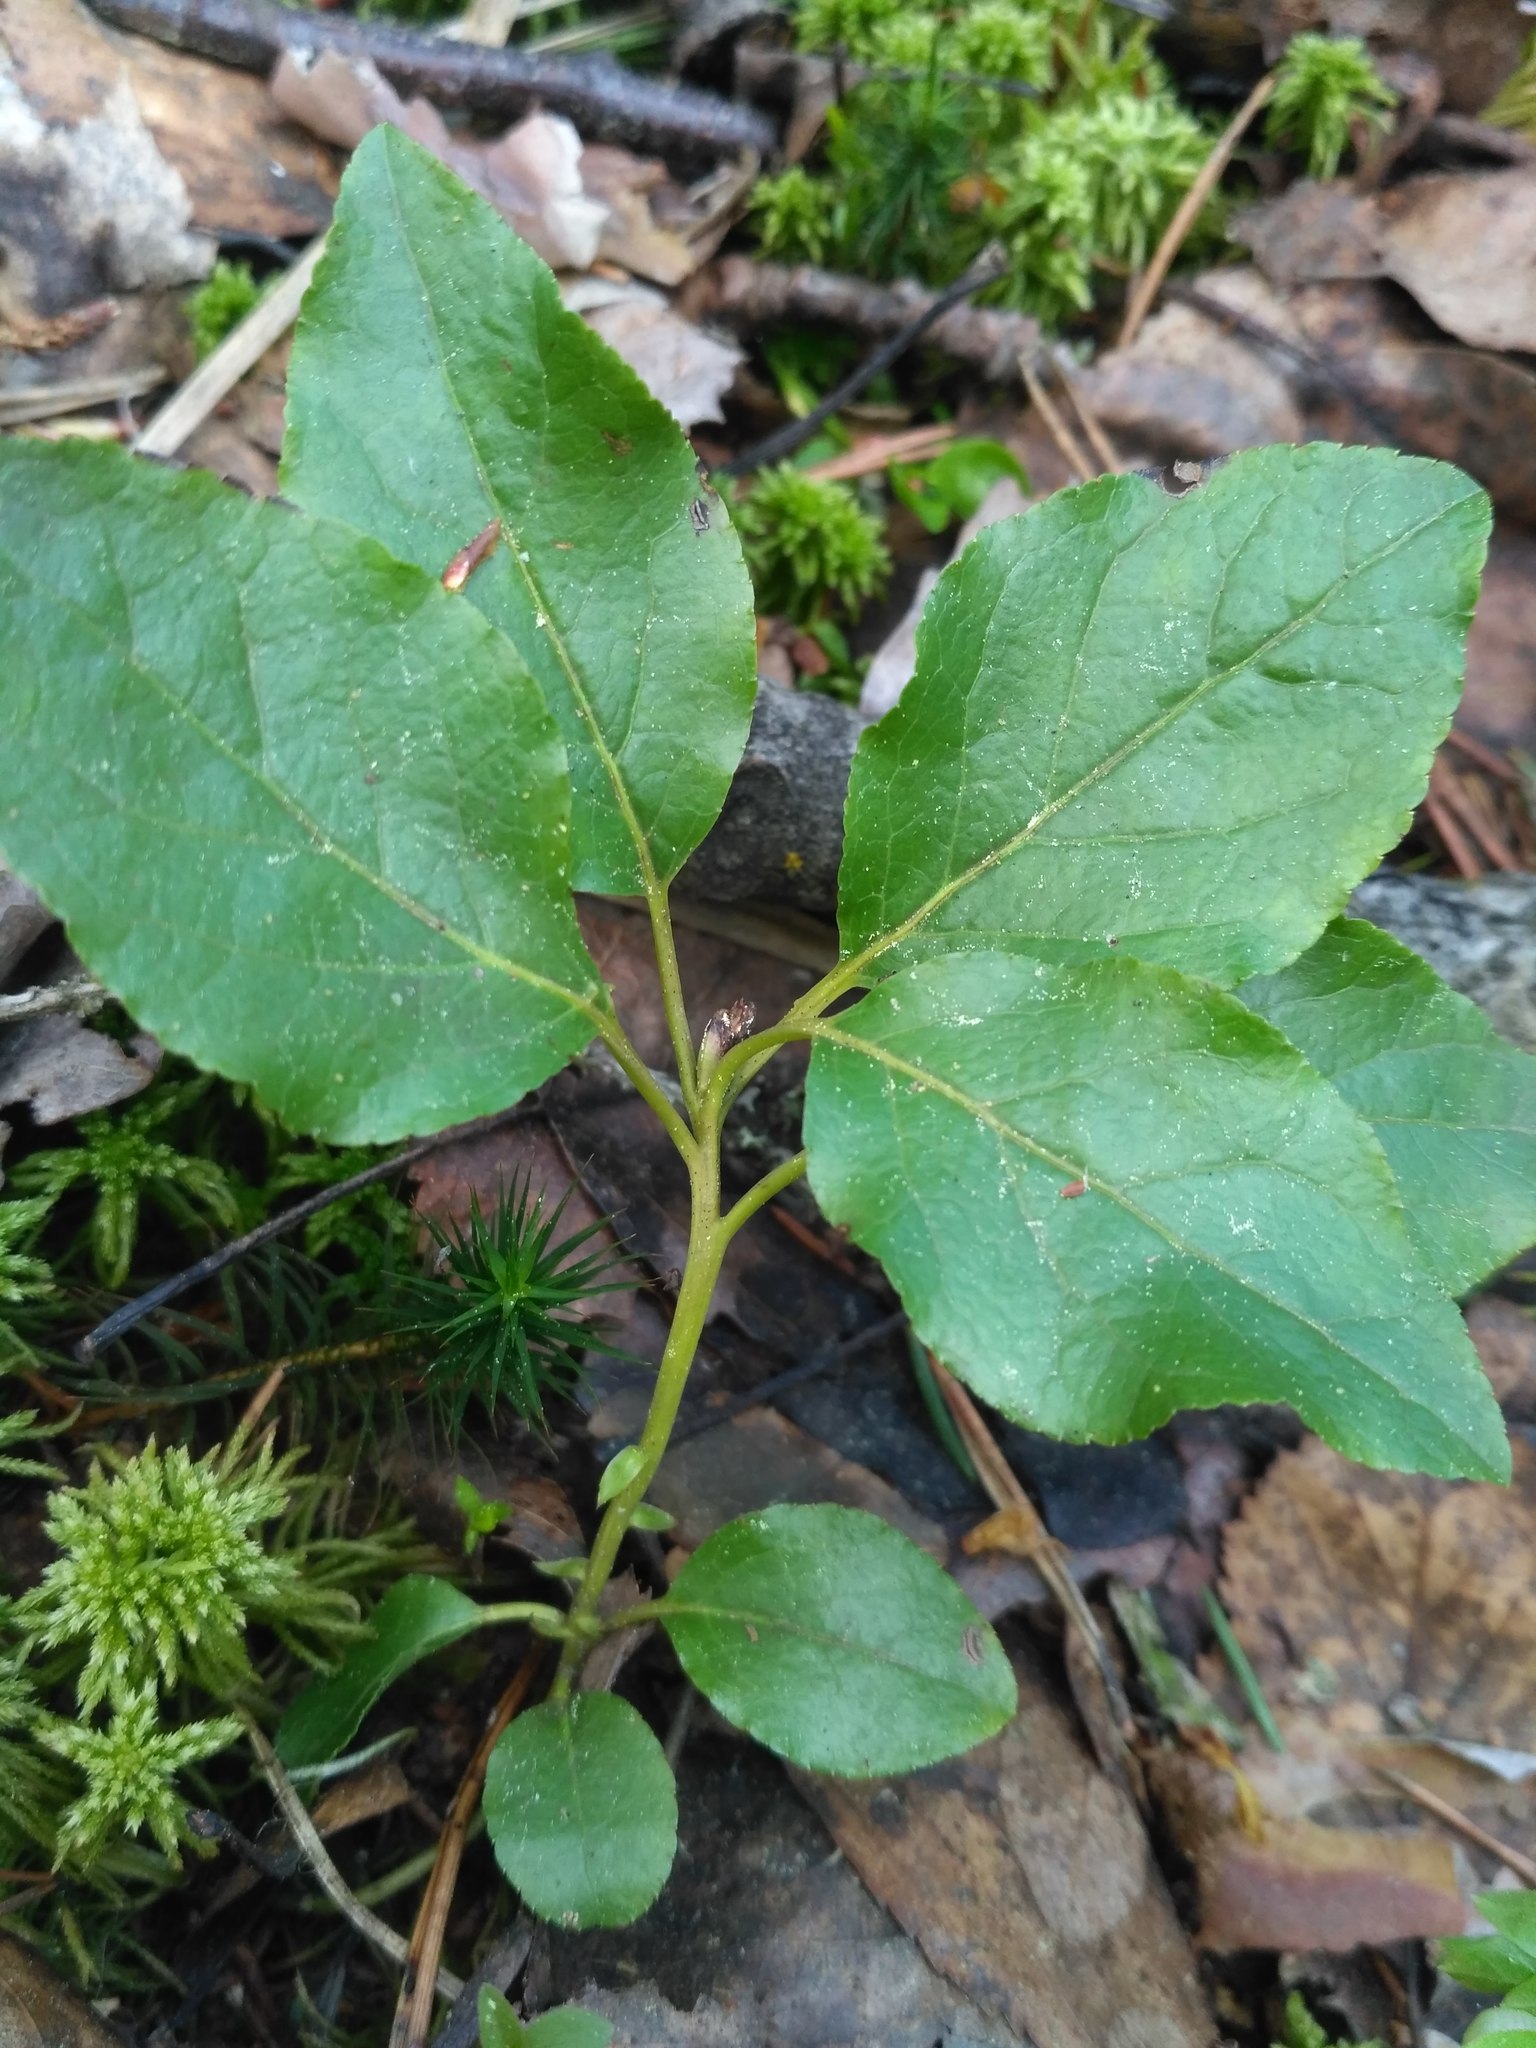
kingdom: Plantae
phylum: Tracheophyta
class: Magnoliopsida
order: Ericales
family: Ericaceae
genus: Orthilia
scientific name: Orthilia secunda
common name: One-sided orthilia
